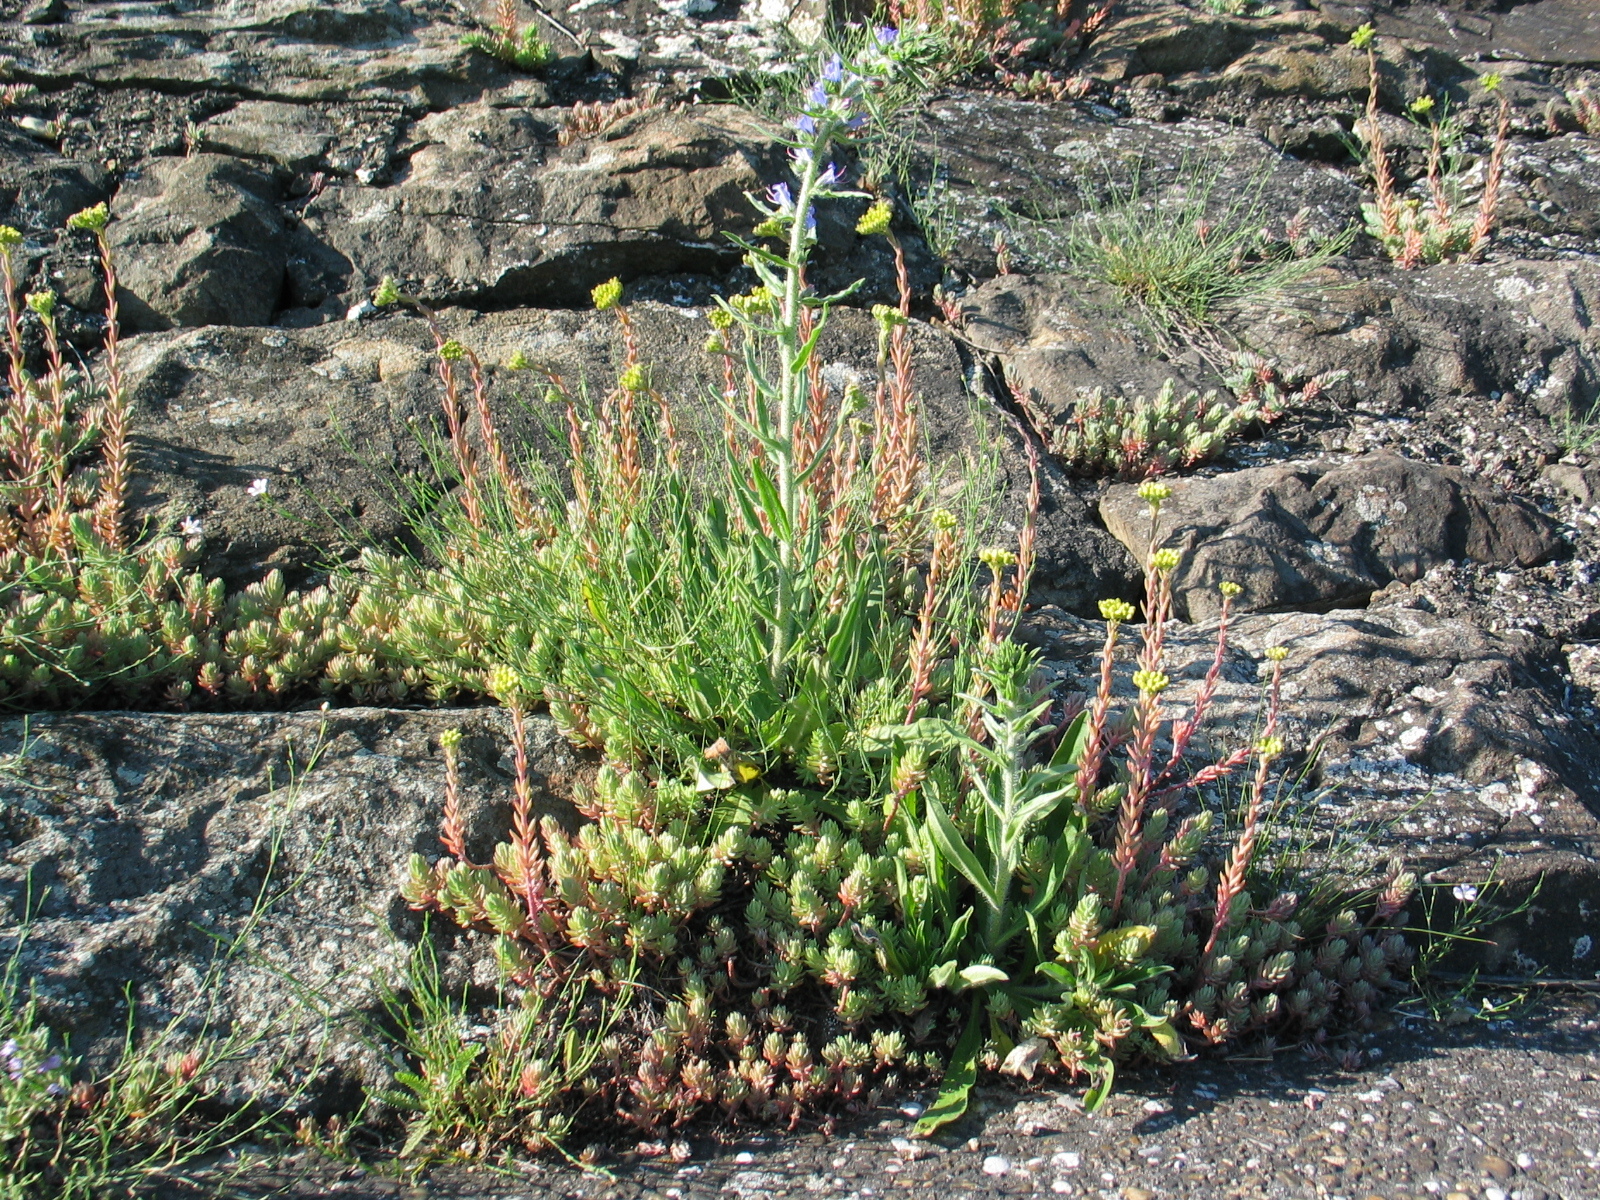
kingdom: Plantae
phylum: Tracheophyta
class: Magnoliopsida
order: Saxifragales
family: Crassulaceae
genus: Petrosedum
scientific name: Petrosedum orientale
